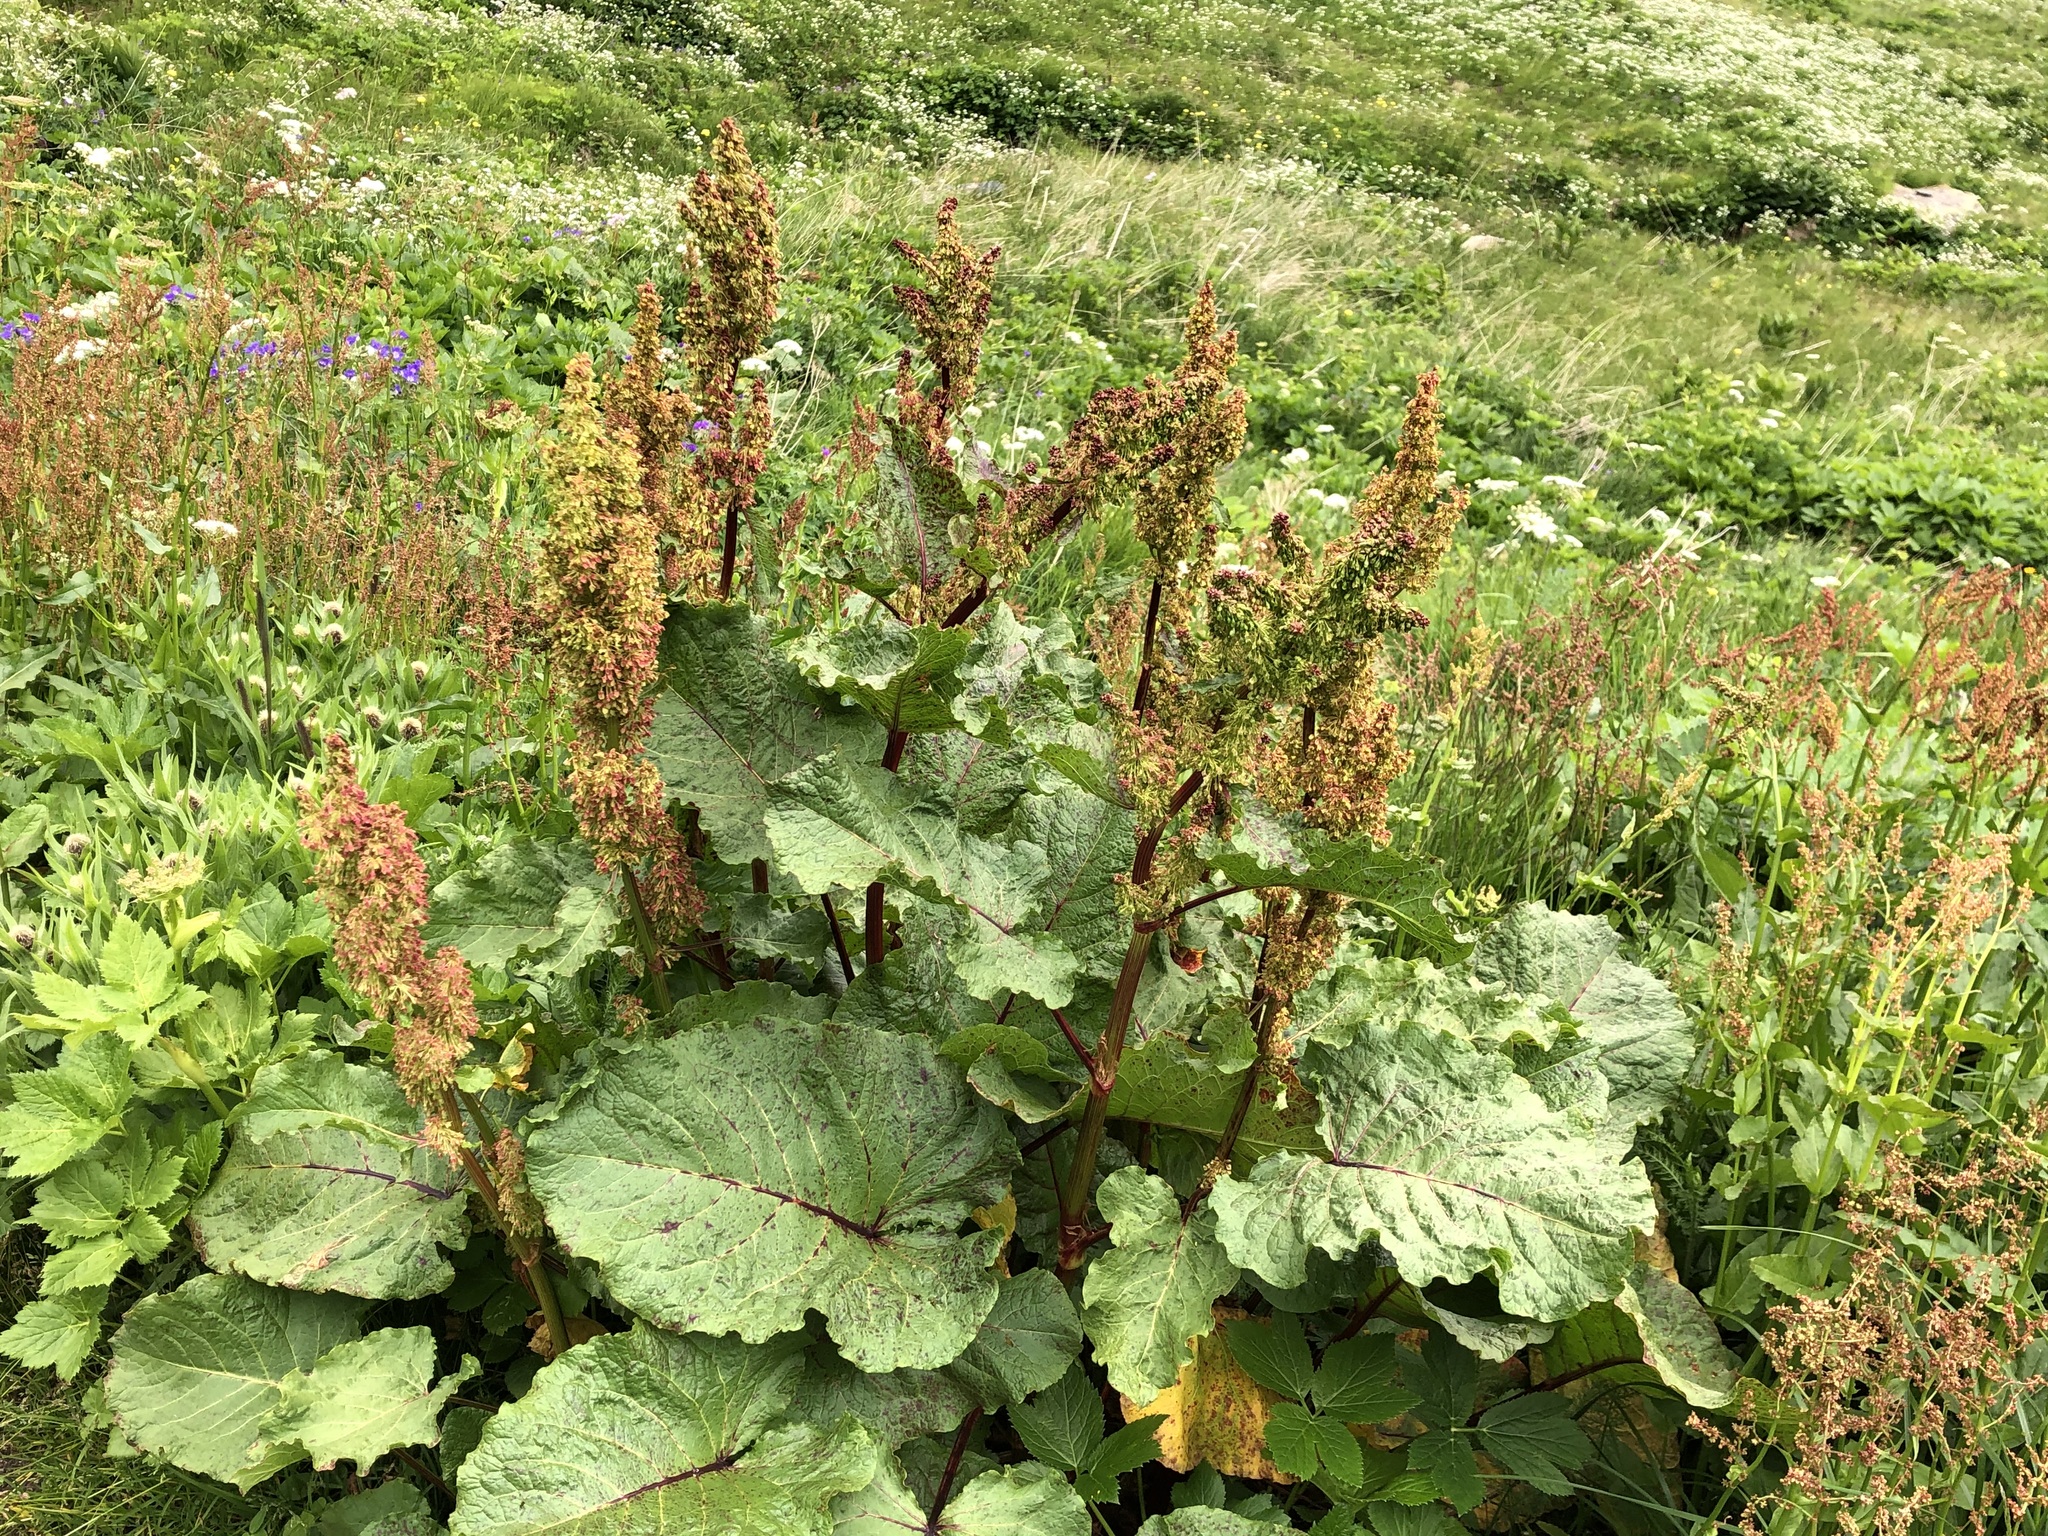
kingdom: Plantae
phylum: Tracheophyta
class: Magnoliopsida
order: Caryophyllales
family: Polygonaceae
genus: Rumex
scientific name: Rumex alpinus
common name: Alpine dock
